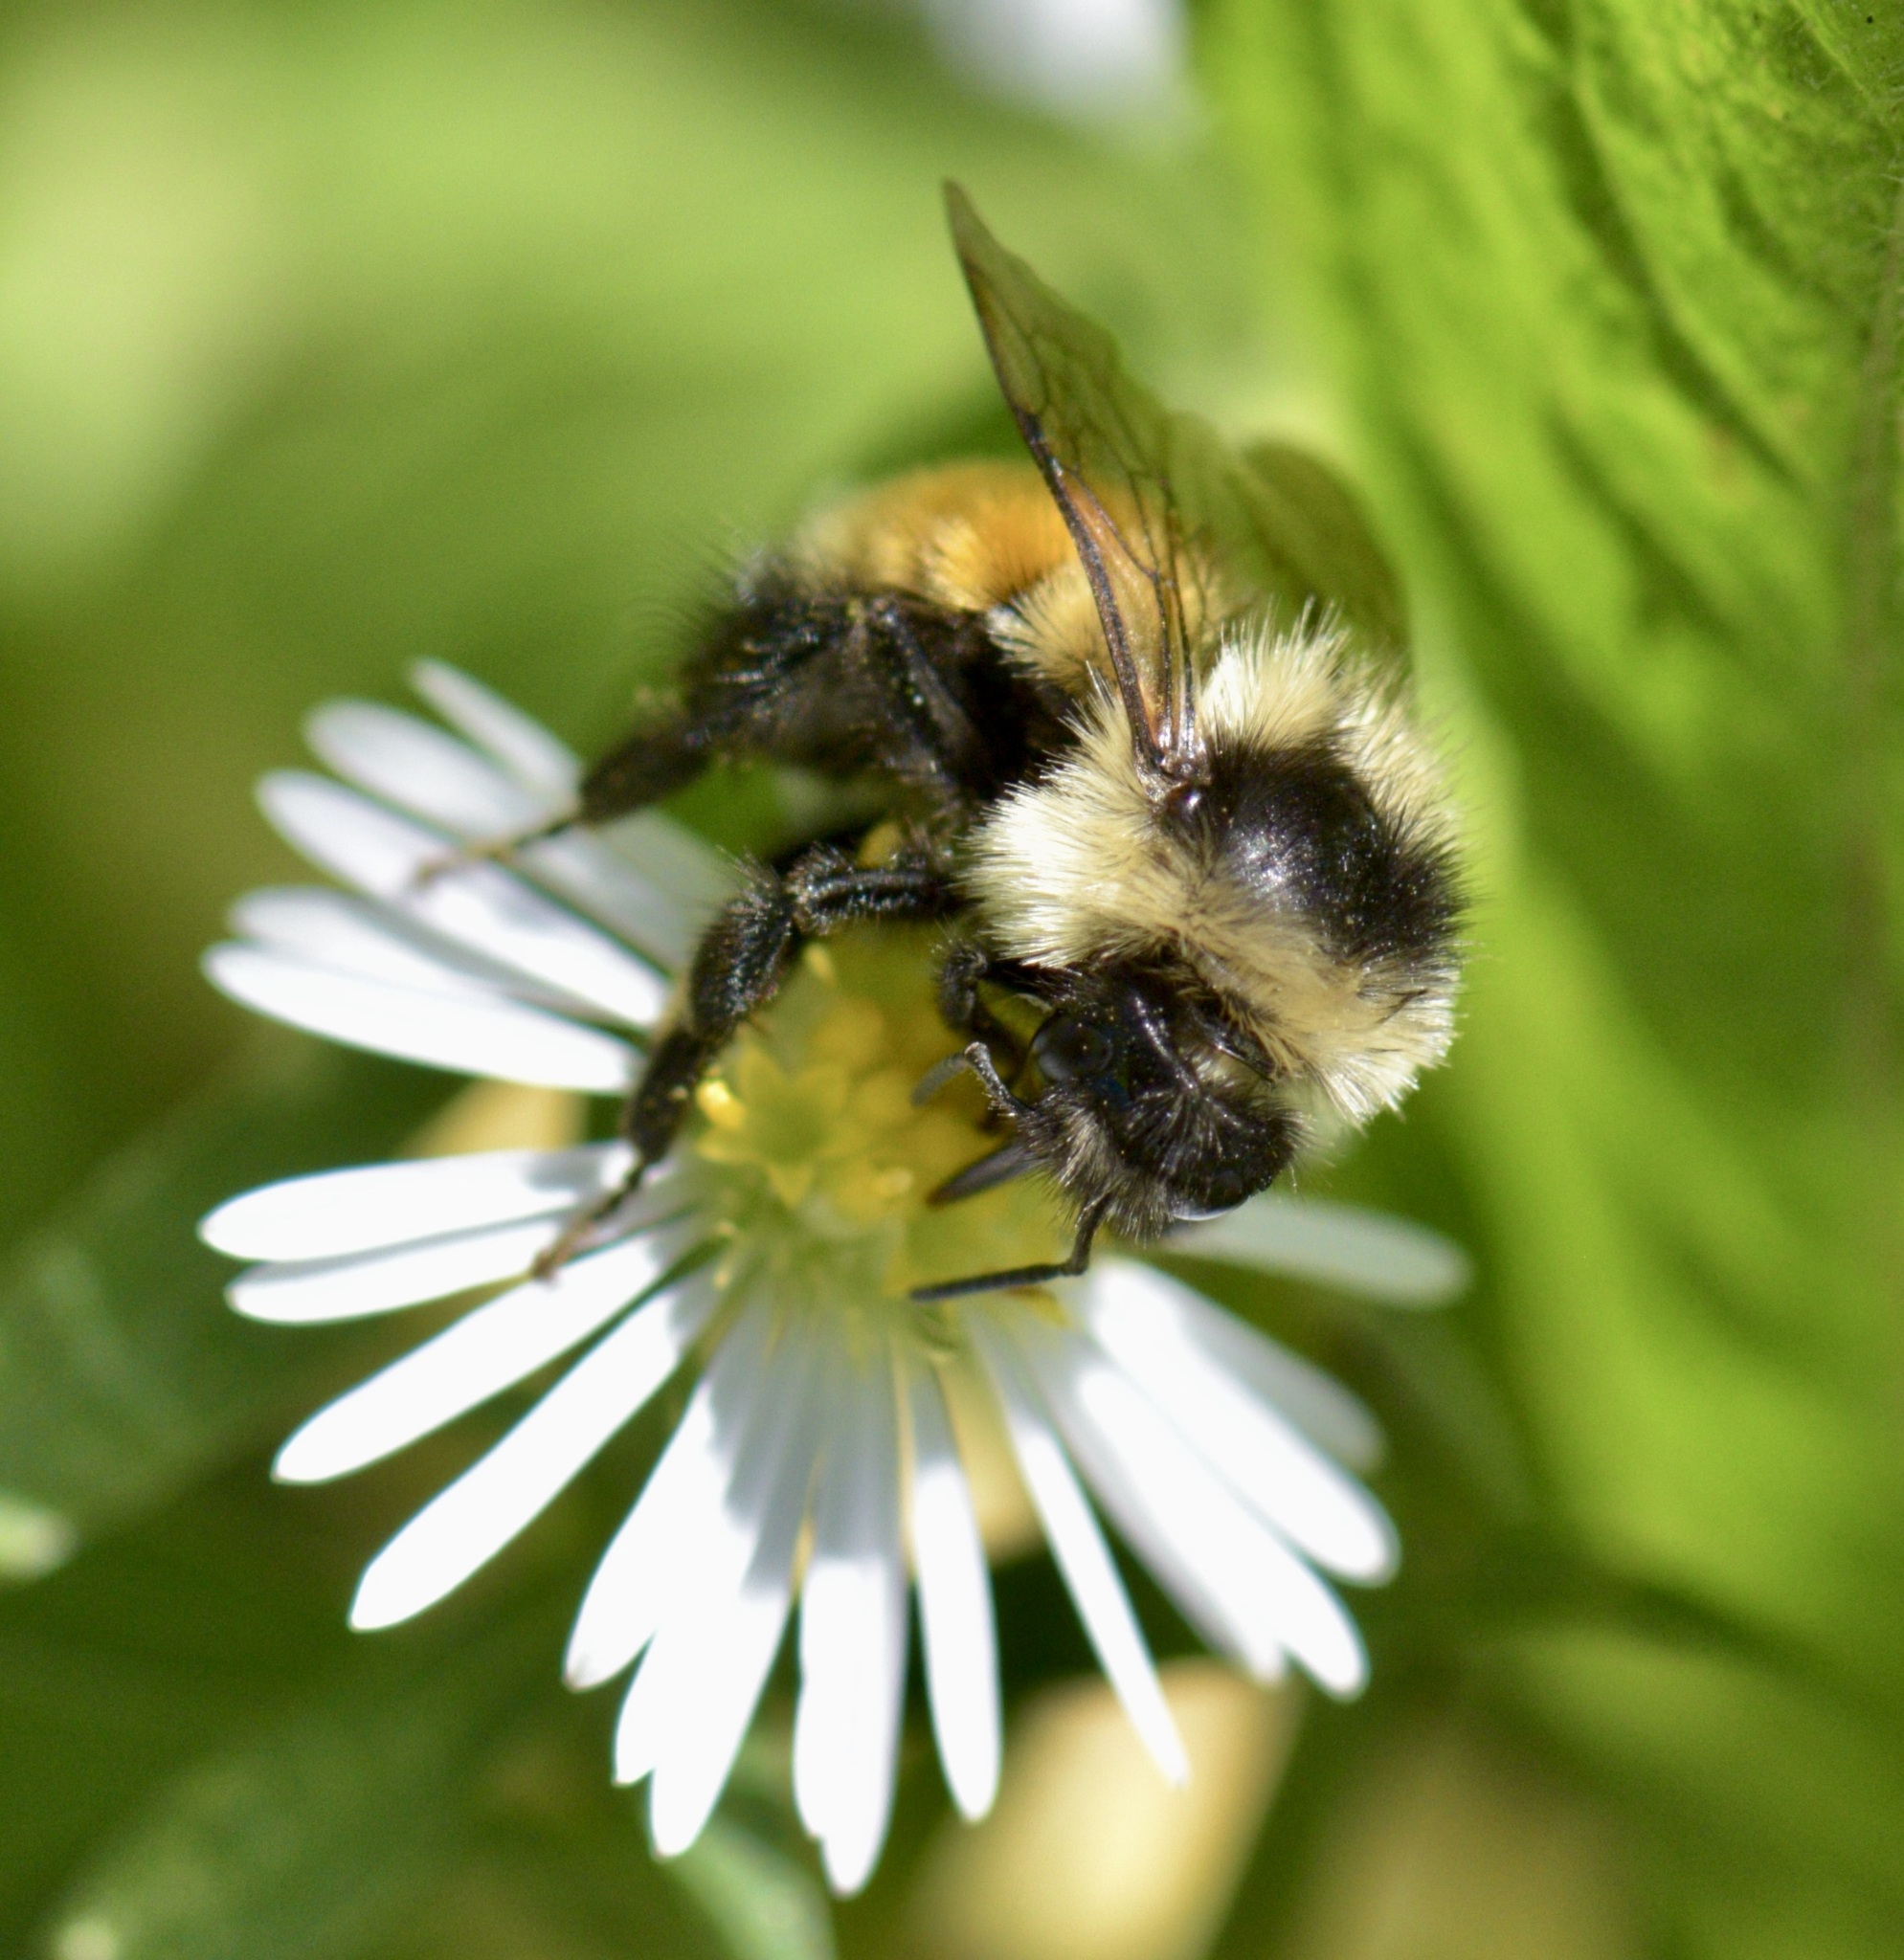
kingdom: Animalia
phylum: Arthropoda
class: Insecta
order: Hymenoptera
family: Apidae
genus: Bombus
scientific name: Bombus ternarius
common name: Tri-colored bumble bee
